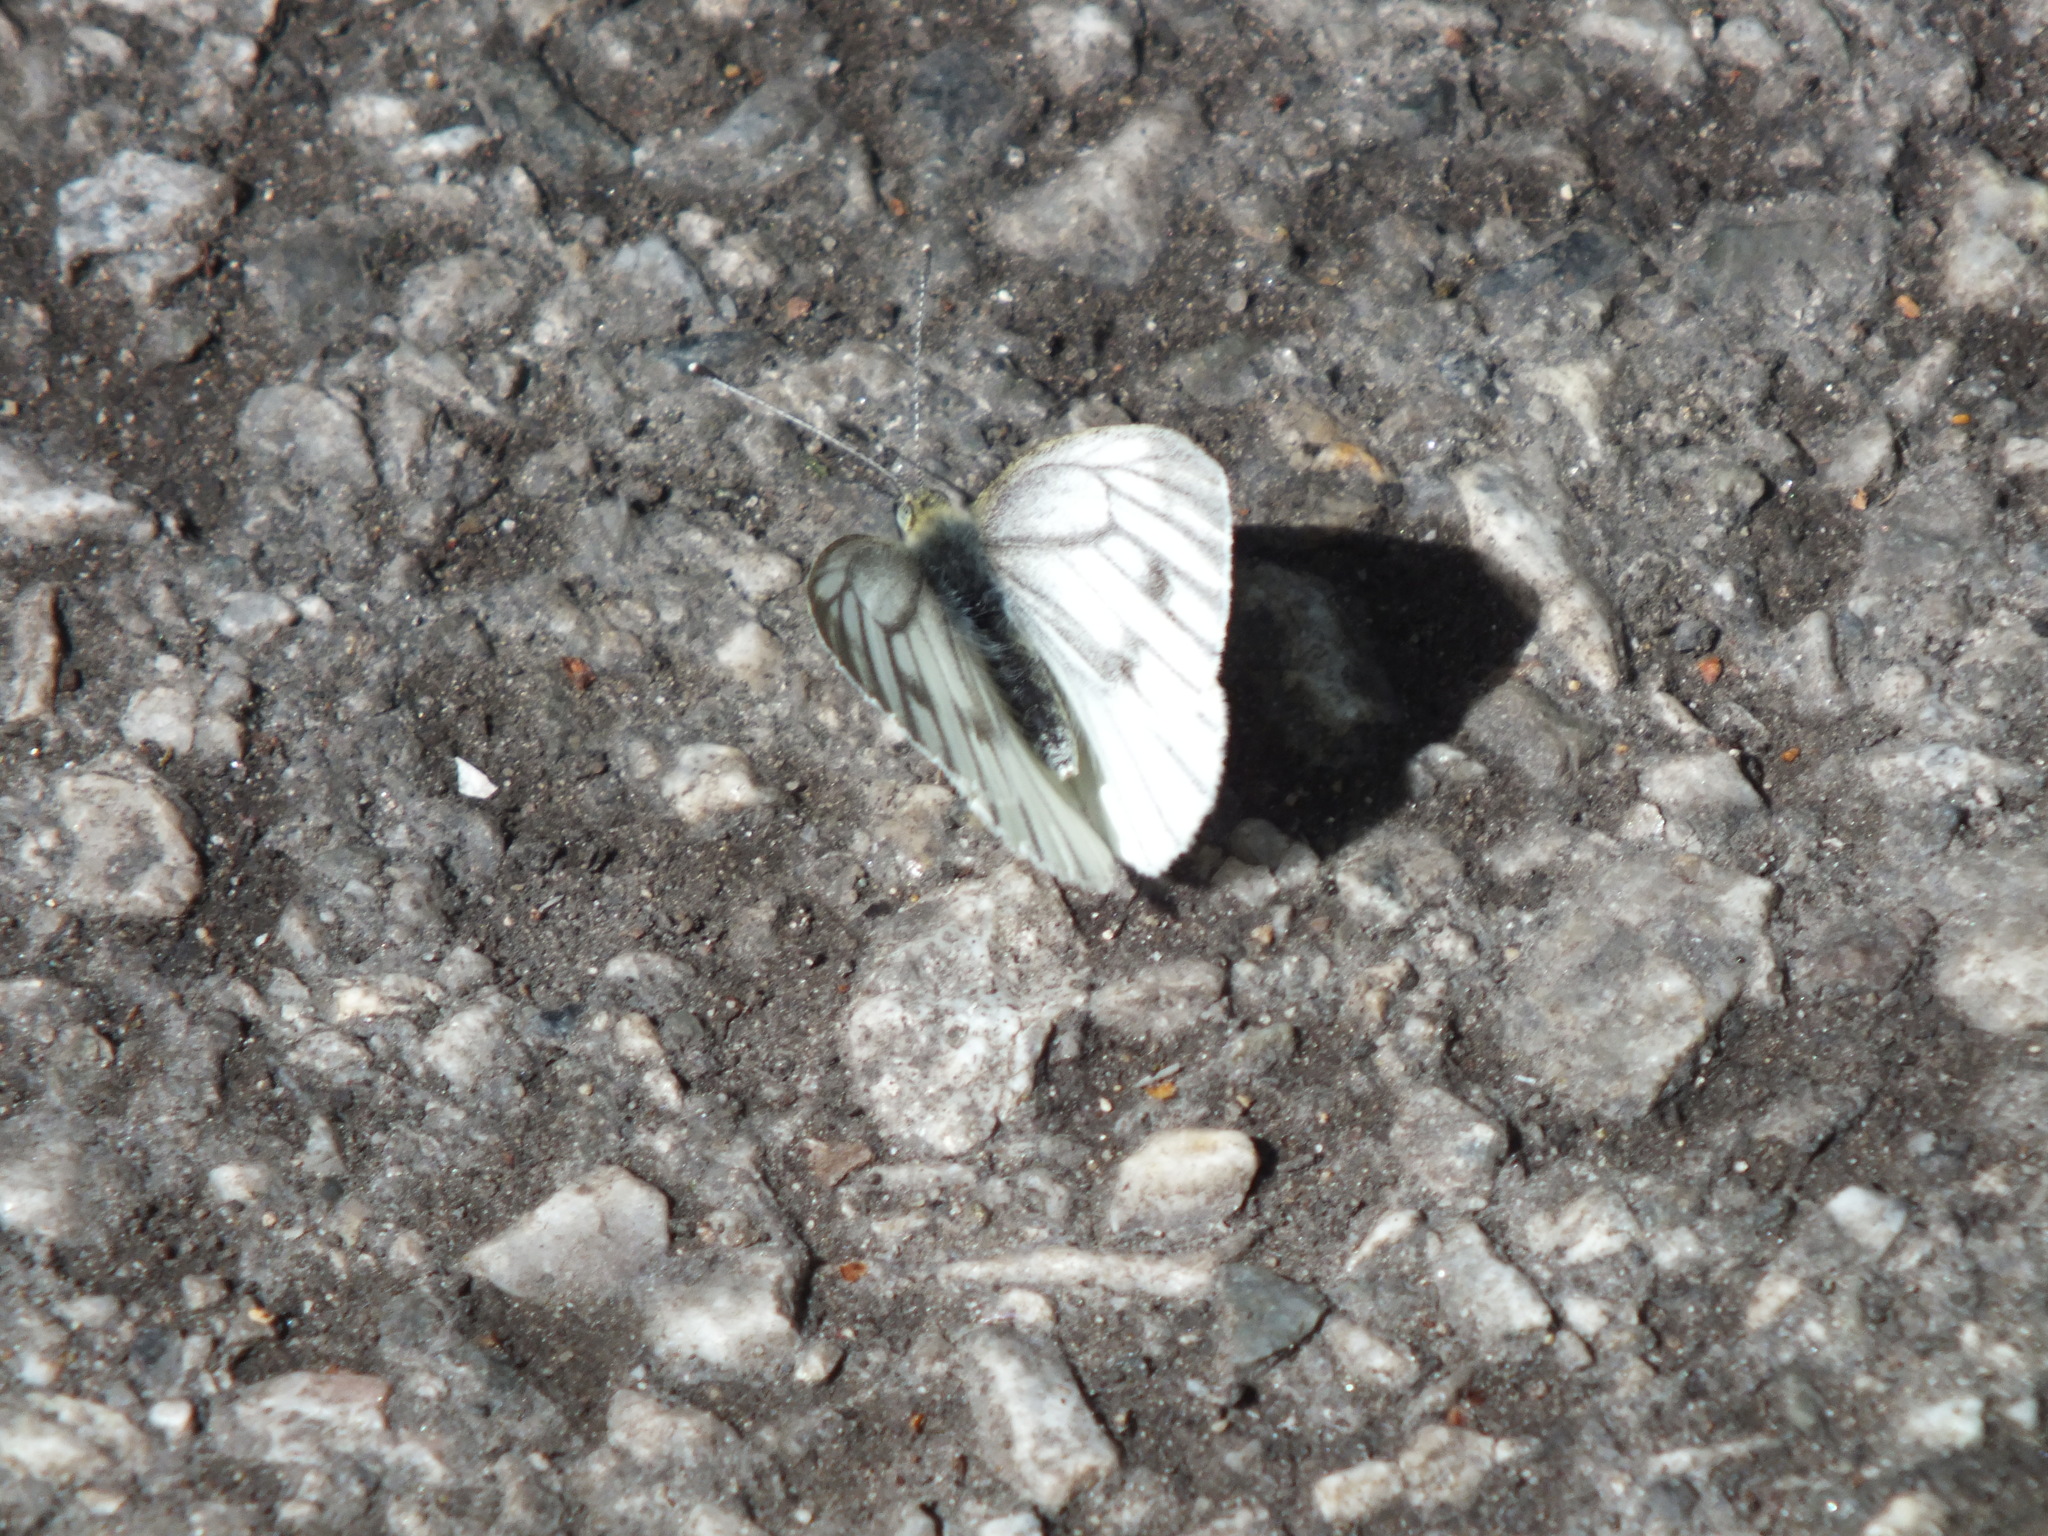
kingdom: Animalia
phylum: Arthropoda
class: Insecta
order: Lepidoptera
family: Pieridae
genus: Pieris
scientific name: Pieris napi
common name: Green-veined white
